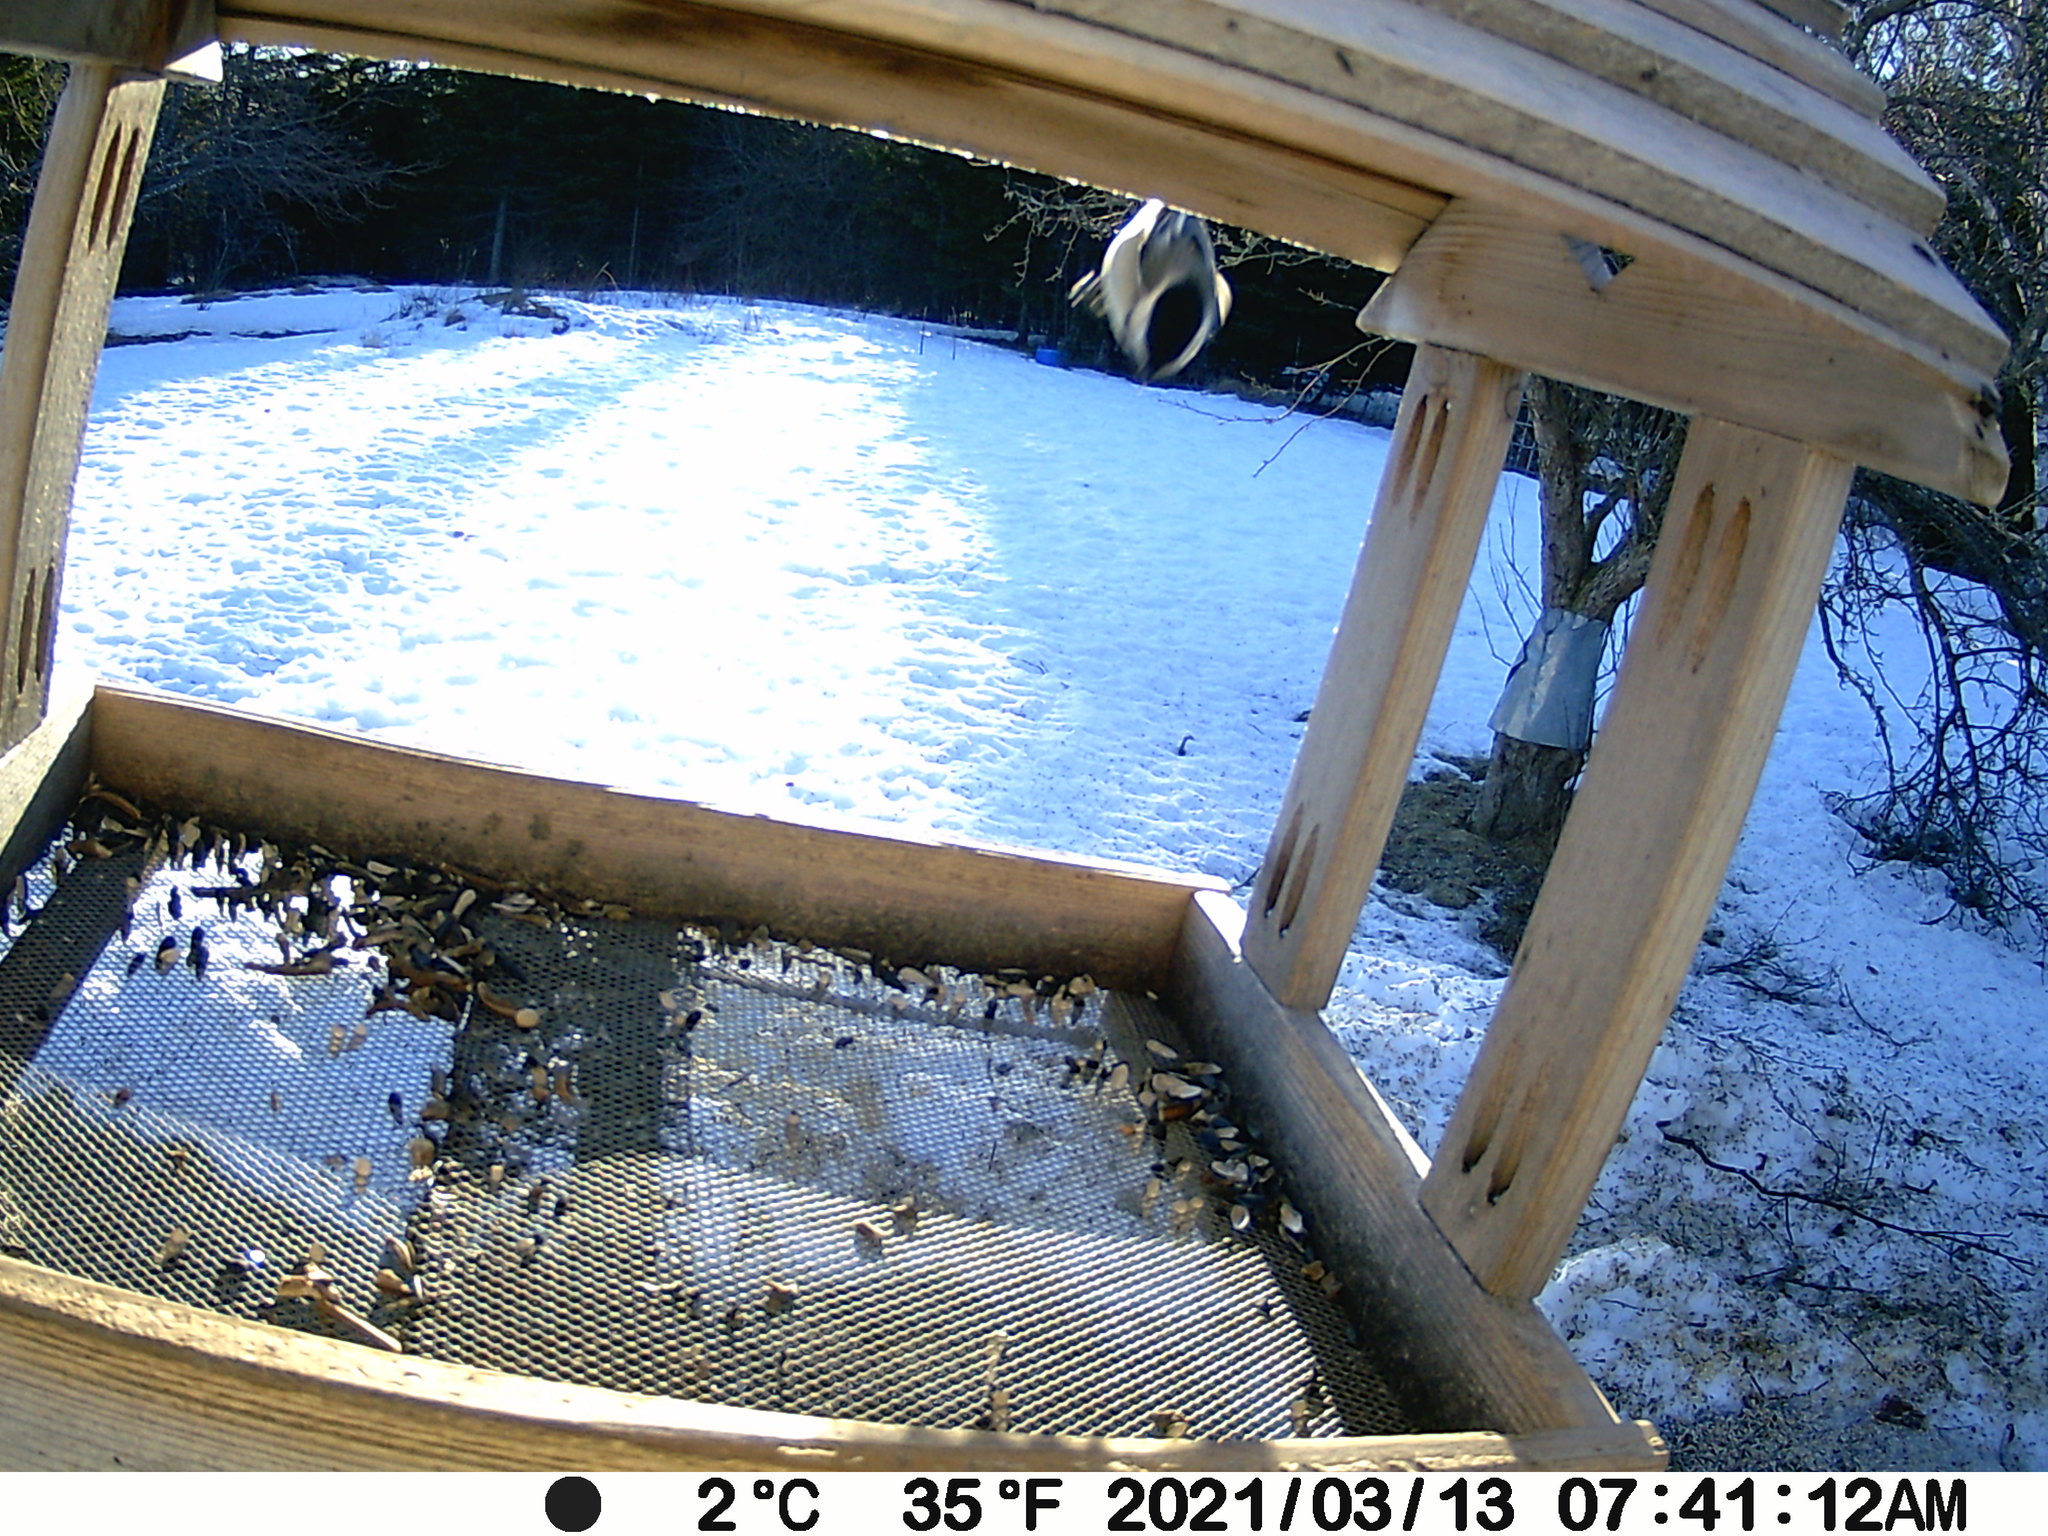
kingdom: Animalia
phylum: Chordata
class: Aves
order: Passeriformes
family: Paridae
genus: Poecile
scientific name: Poecile atricapillus
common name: Black-capped chickadee
